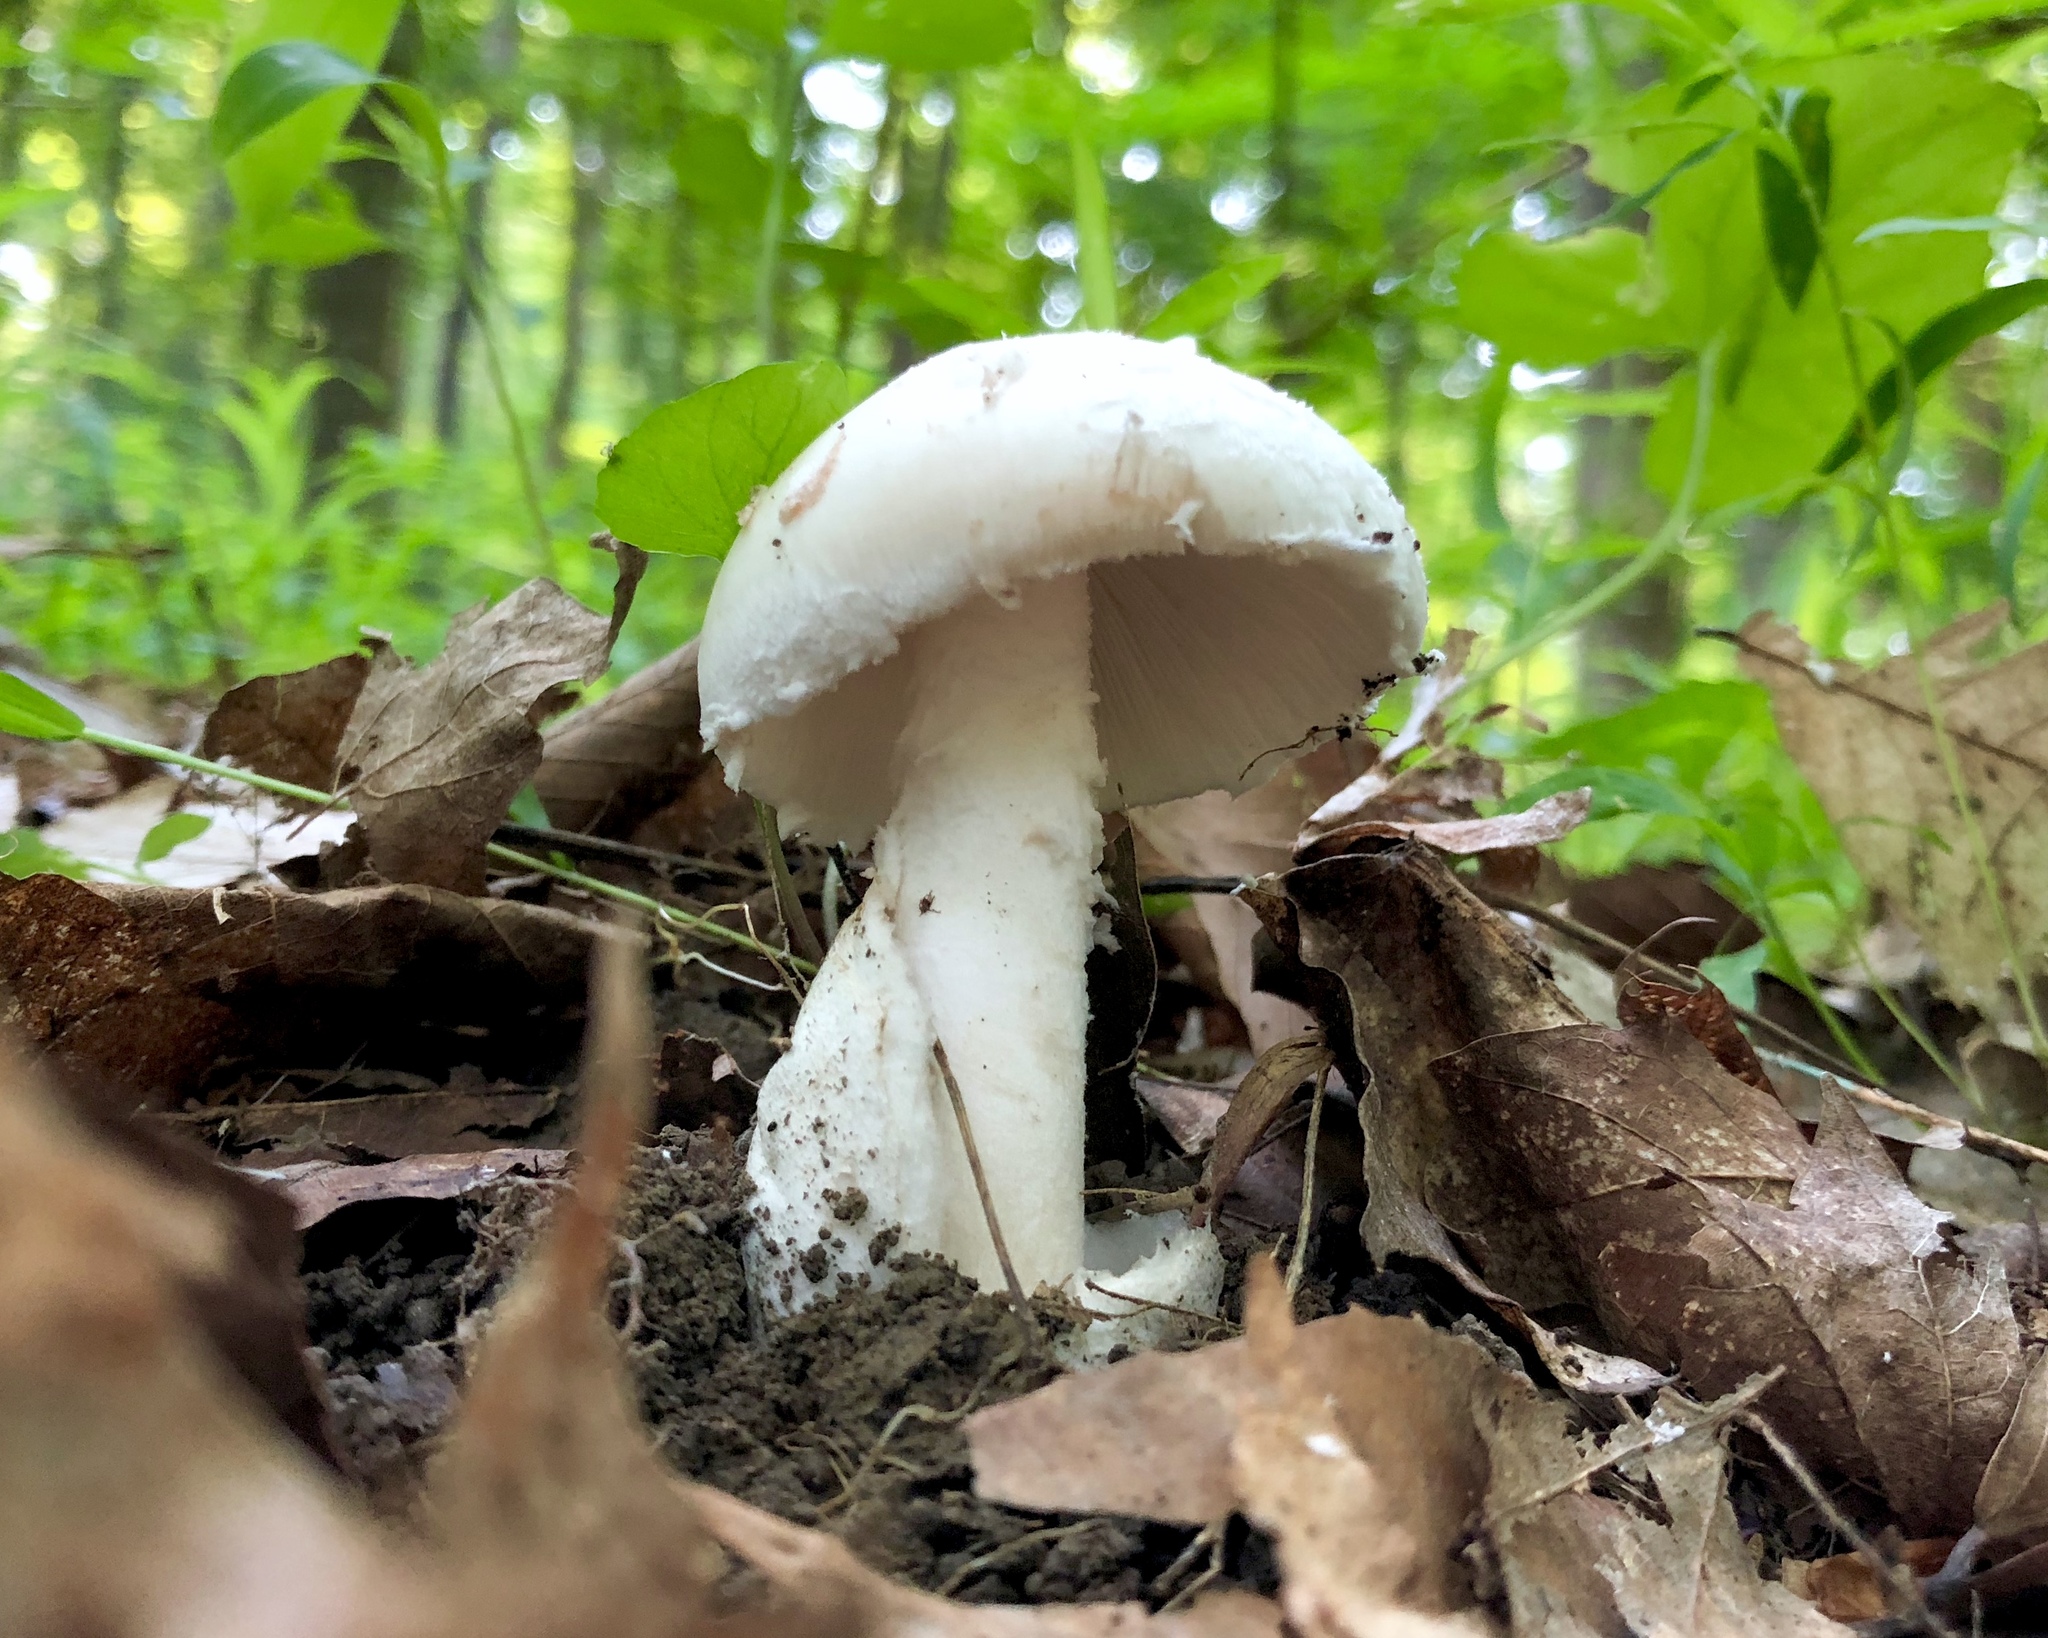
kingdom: Fungi
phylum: Basidiomycota
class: Agaricomycetes
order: Agaricales
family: Amanitaceae
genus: Amanita
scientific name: Amanita volvata
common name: American amidella
